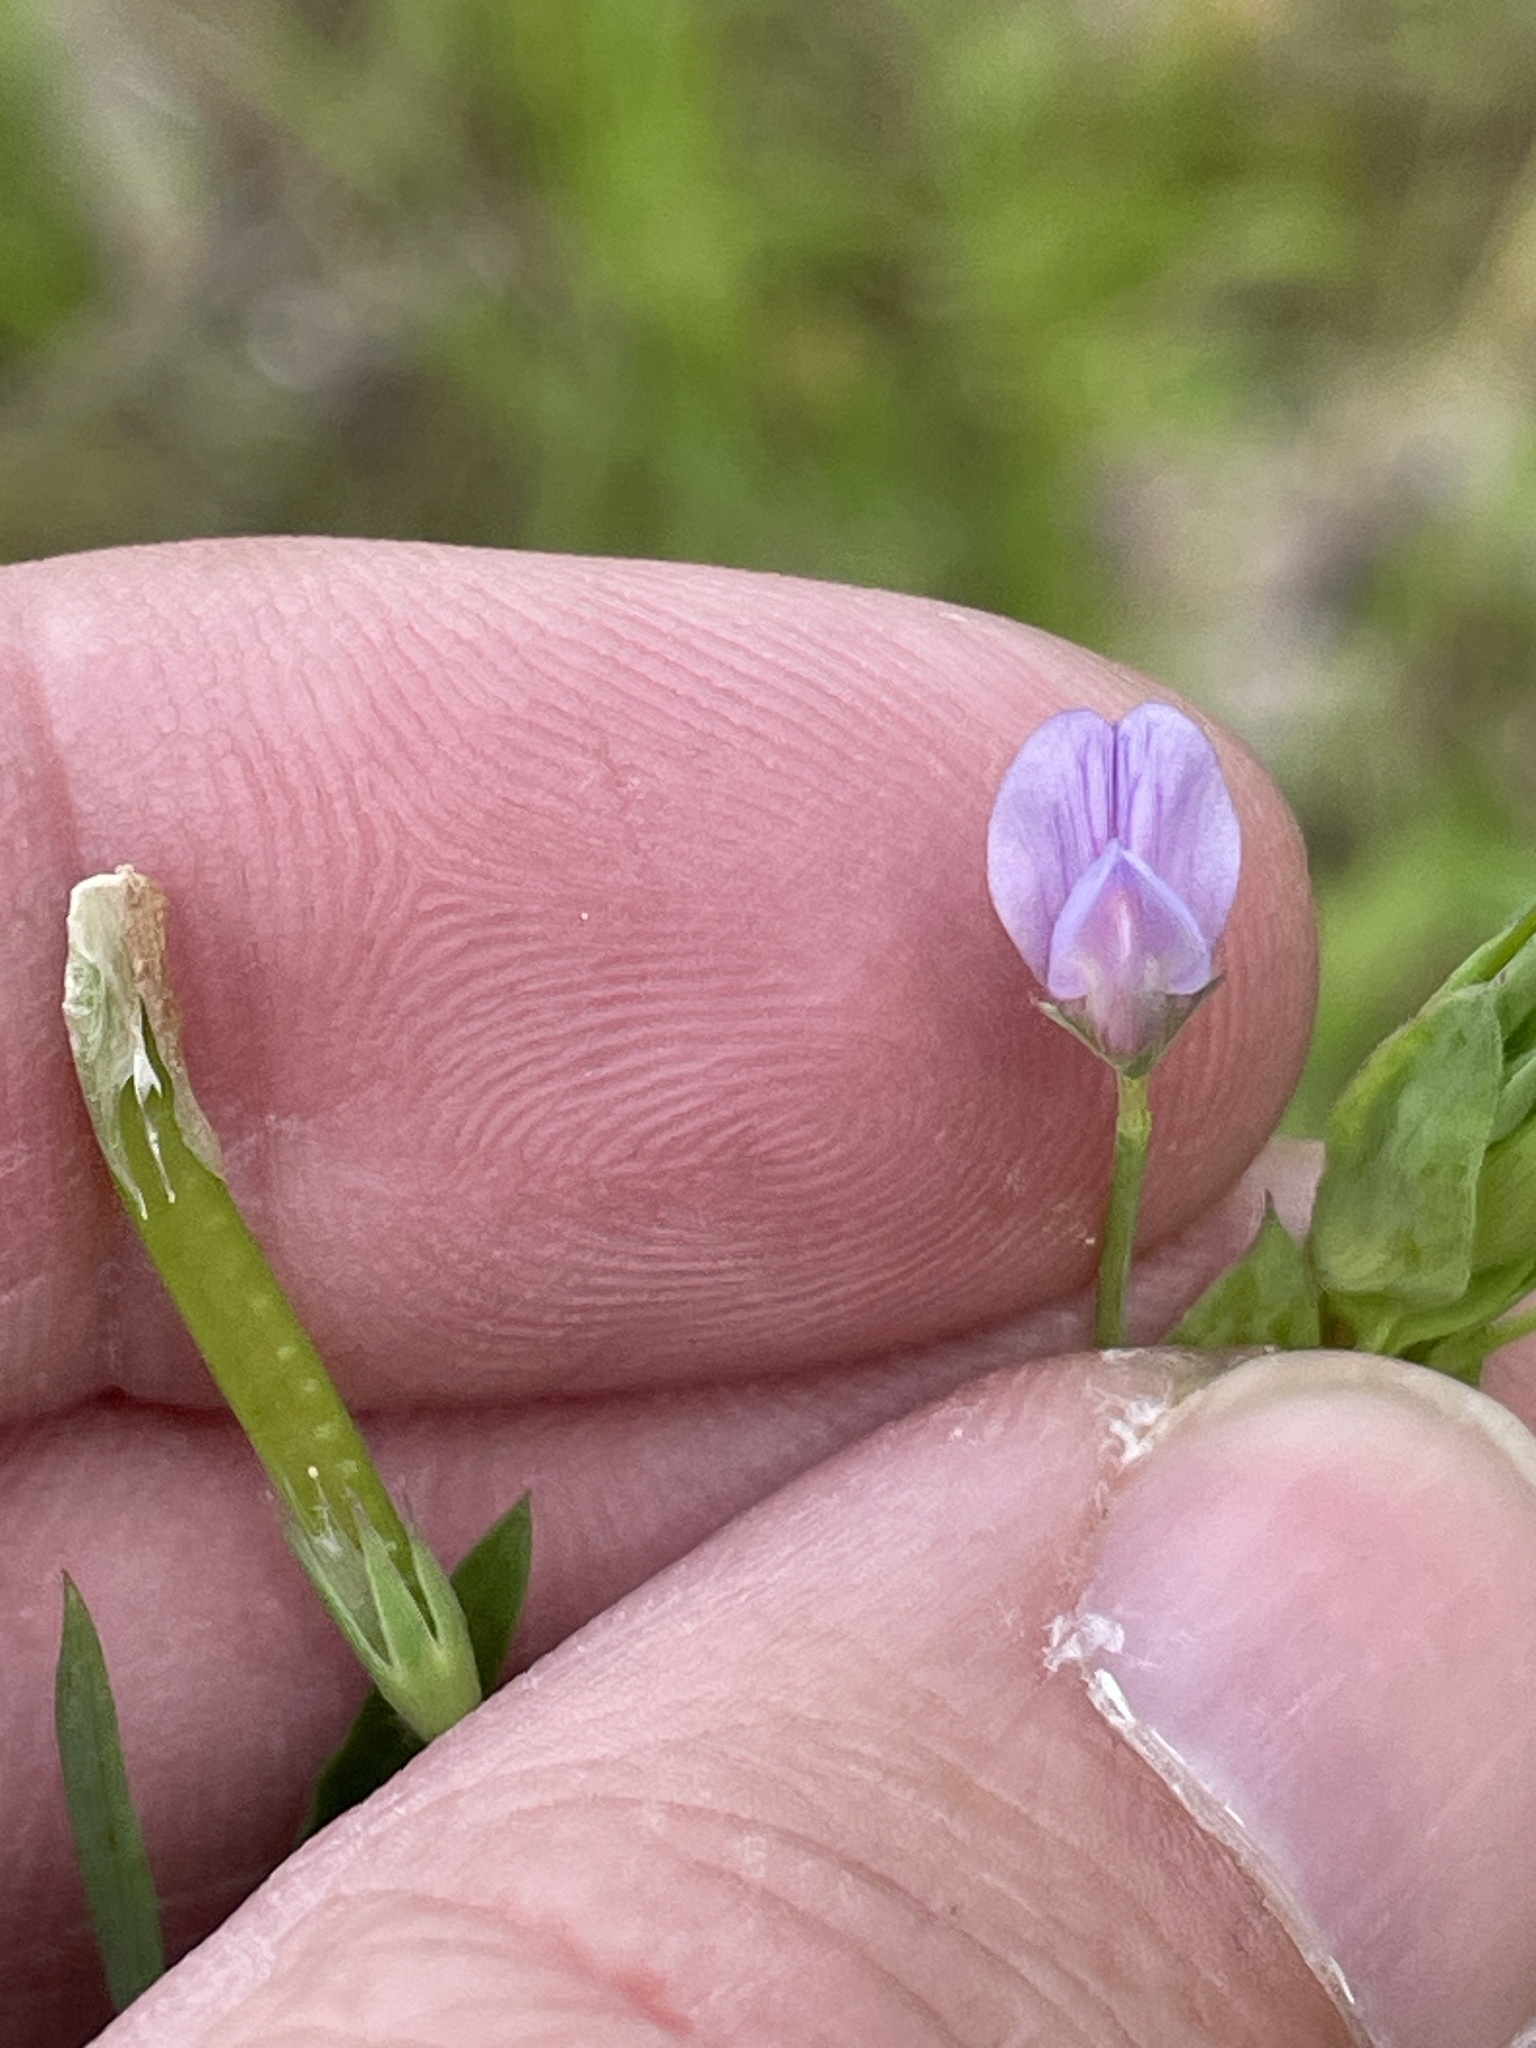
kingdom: Plantae
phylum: Tracheophyta
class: Magnoliopsida
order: Fabales
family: Fabaceae
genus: Lathyrus
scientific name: Lathyrus pusillus
